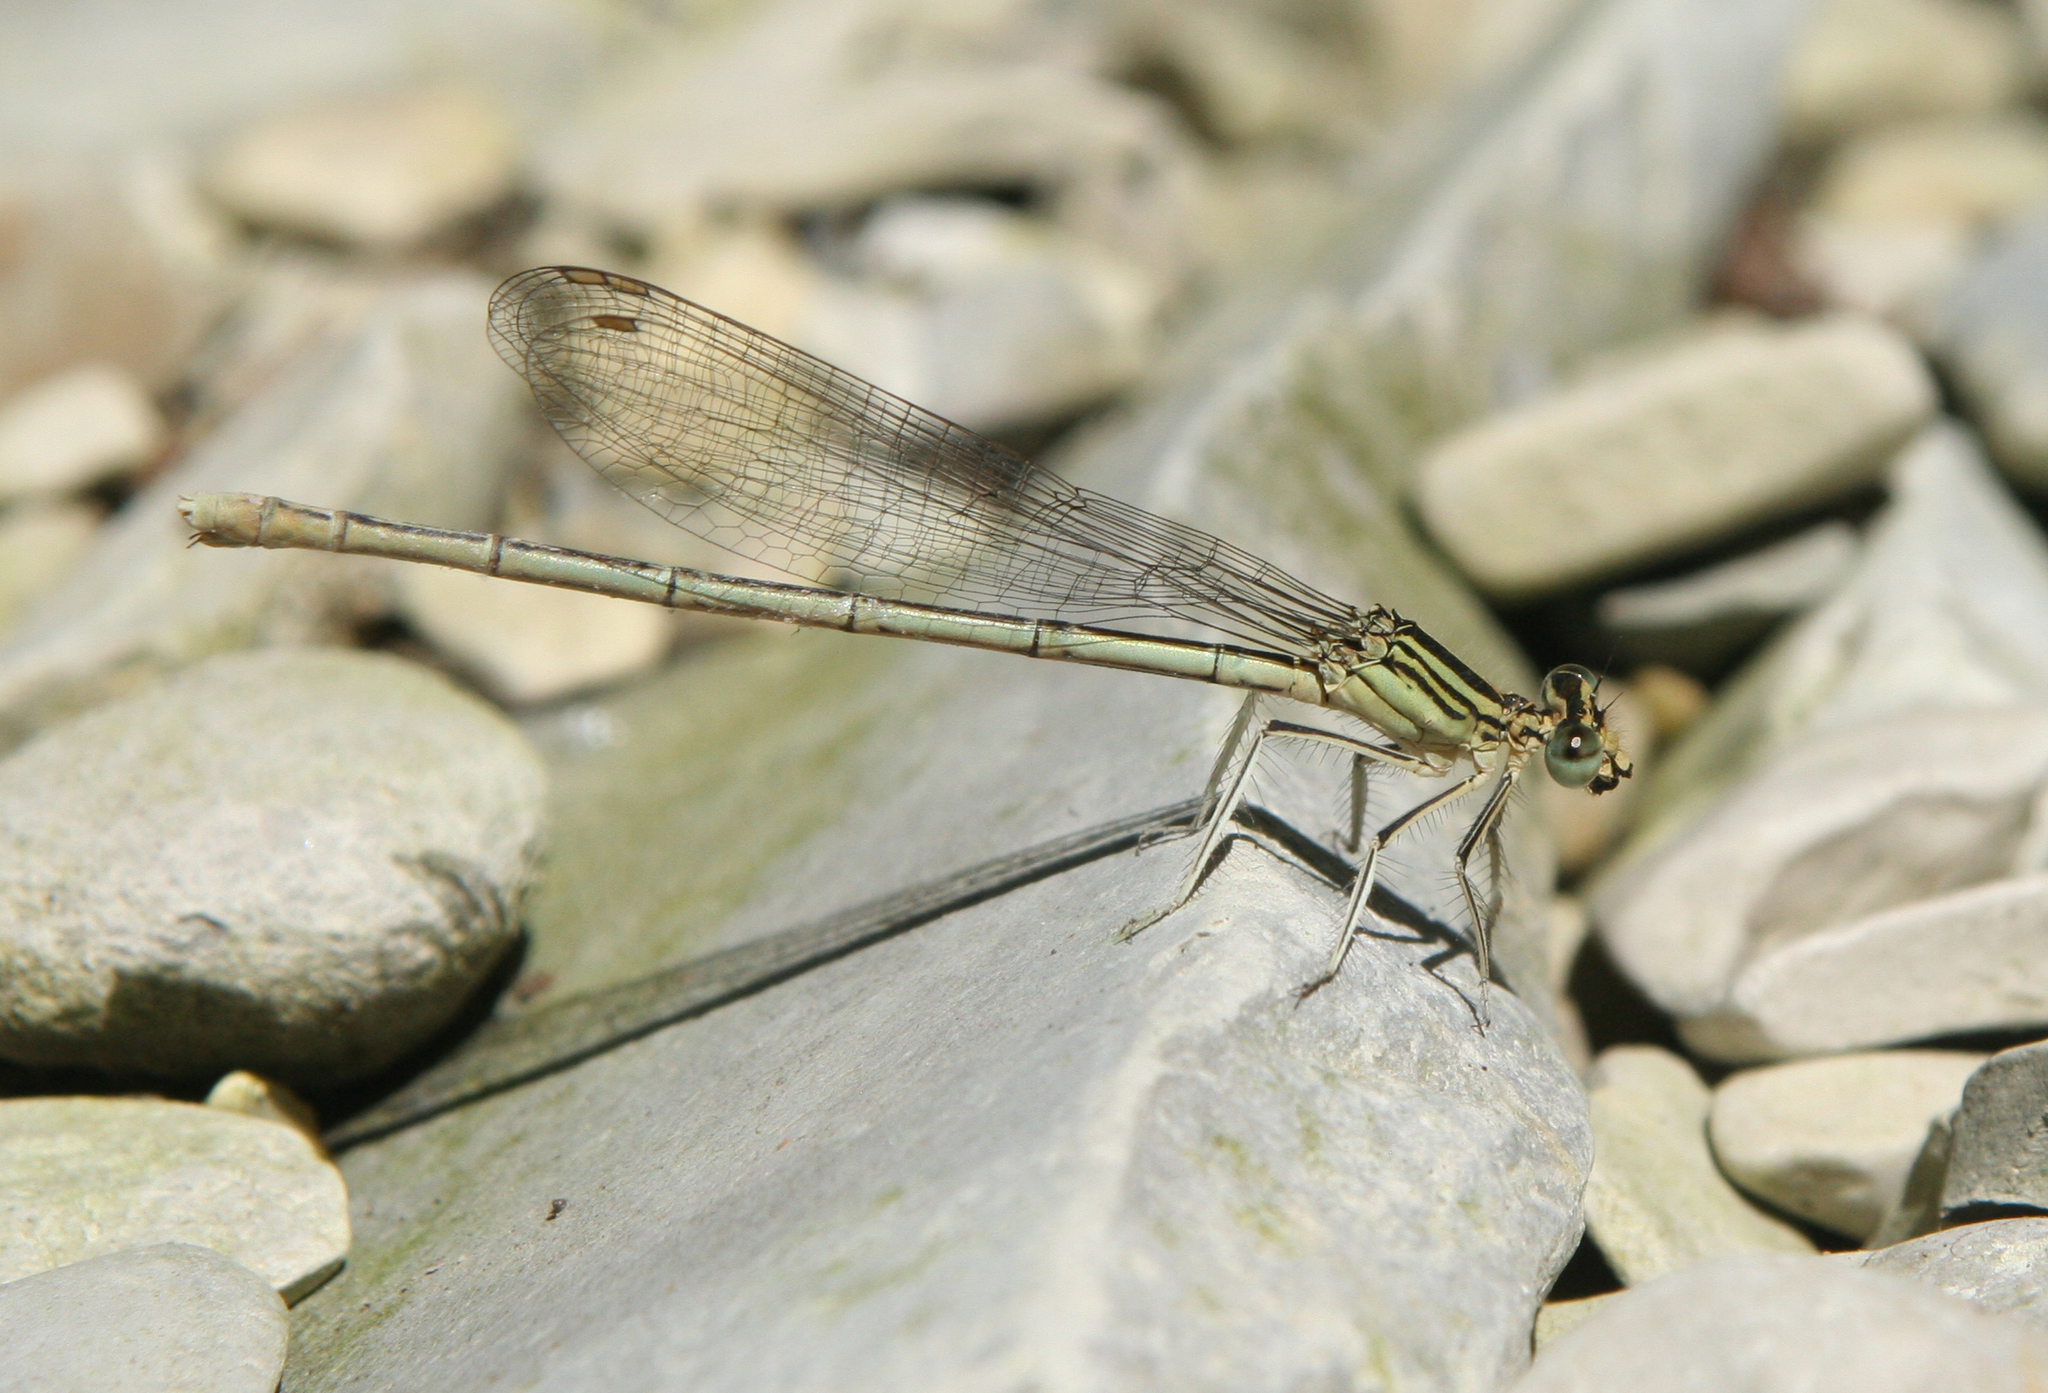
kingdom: Animalia
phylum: Arthropoda
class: Insecta
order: Odonata
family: Platycnemididae
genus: Platycnemis
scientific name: Platycnemis pennipes
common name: White-legged damselfly
